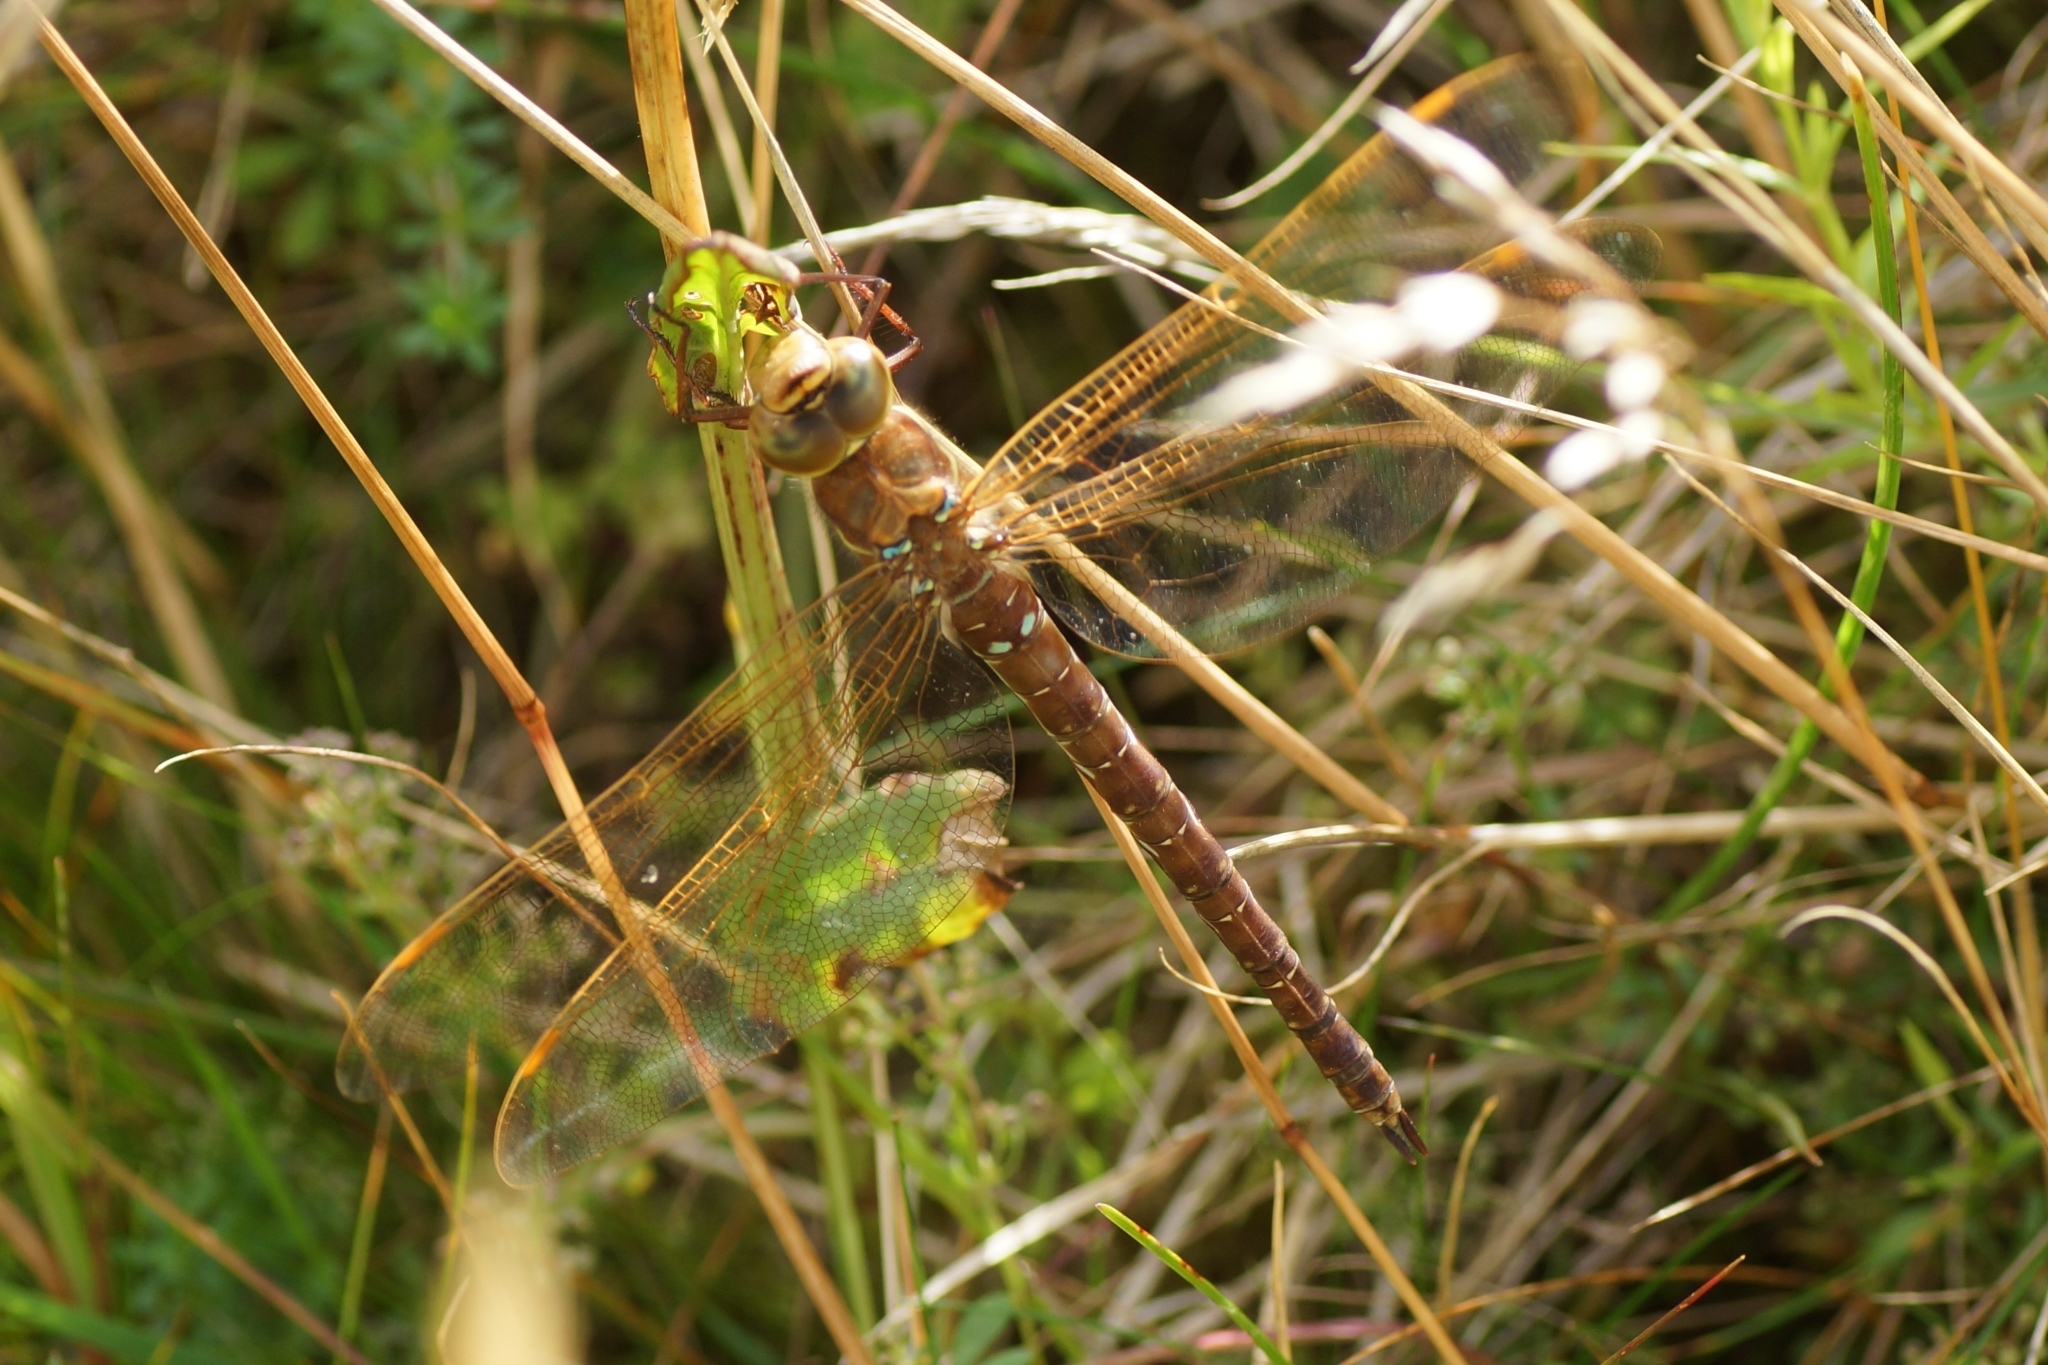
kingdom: Animalia
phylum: Arthropoda
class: Insecta
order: Odonata
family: Aeshnidae
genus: Aeshna
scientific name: Aeshna grandis
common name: Brown hawker
